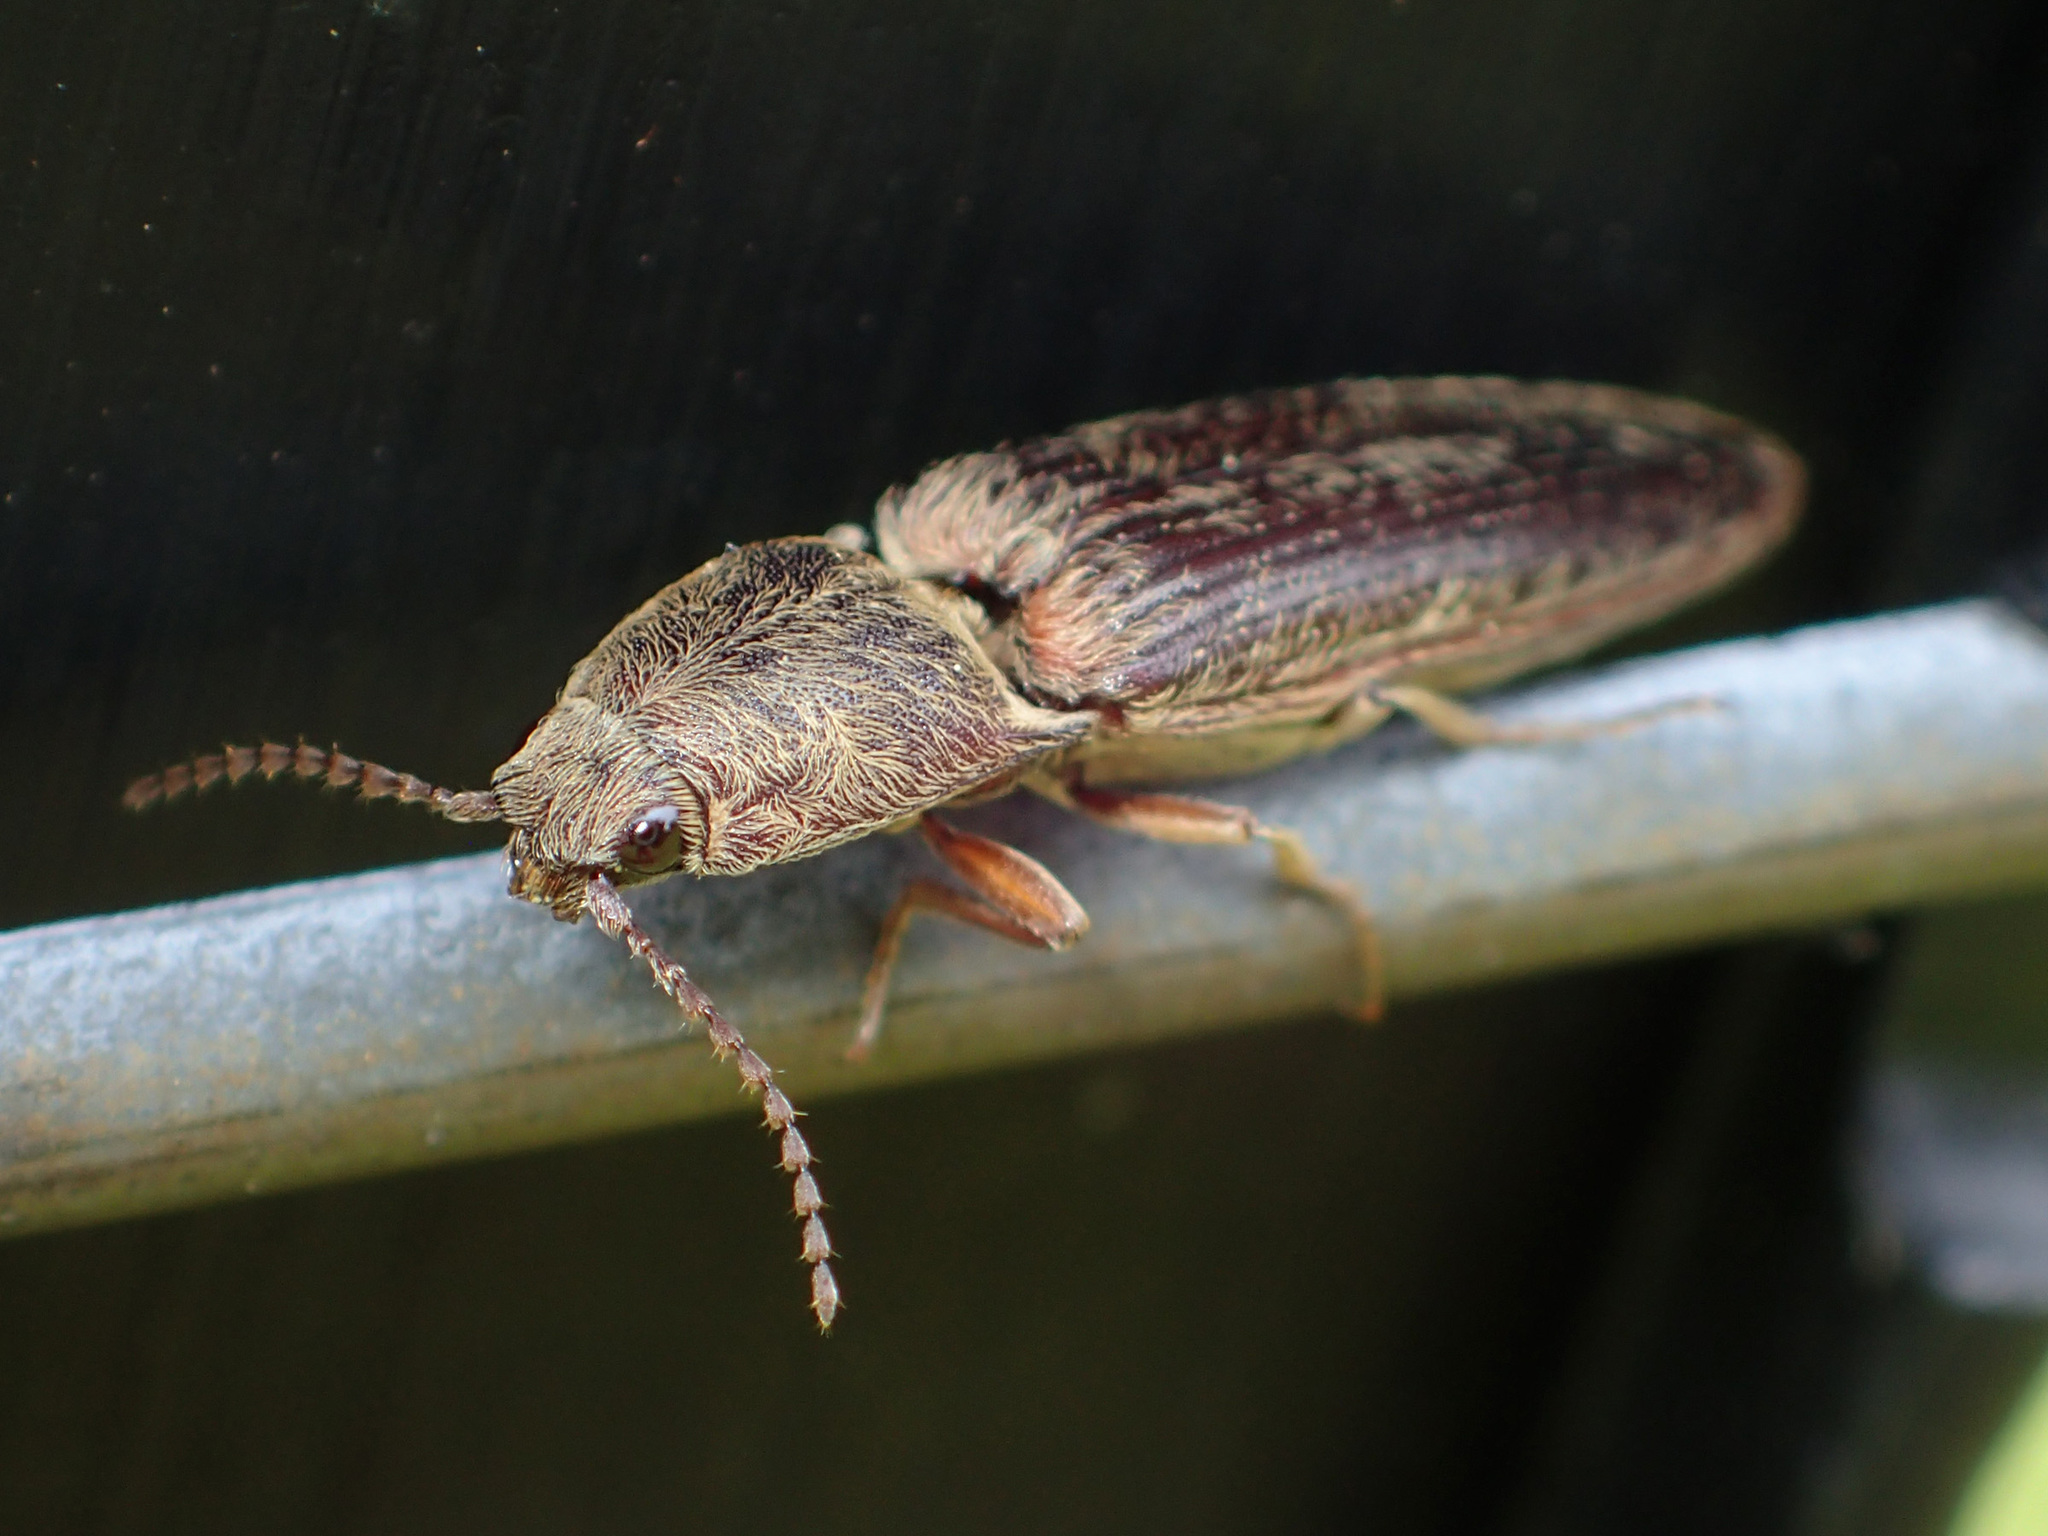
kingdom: Animalia
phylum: Arthropoda
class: Insecta
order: Coleoptera
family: Elateridae
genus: Gambrinus
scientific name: Gambrinus griseus
